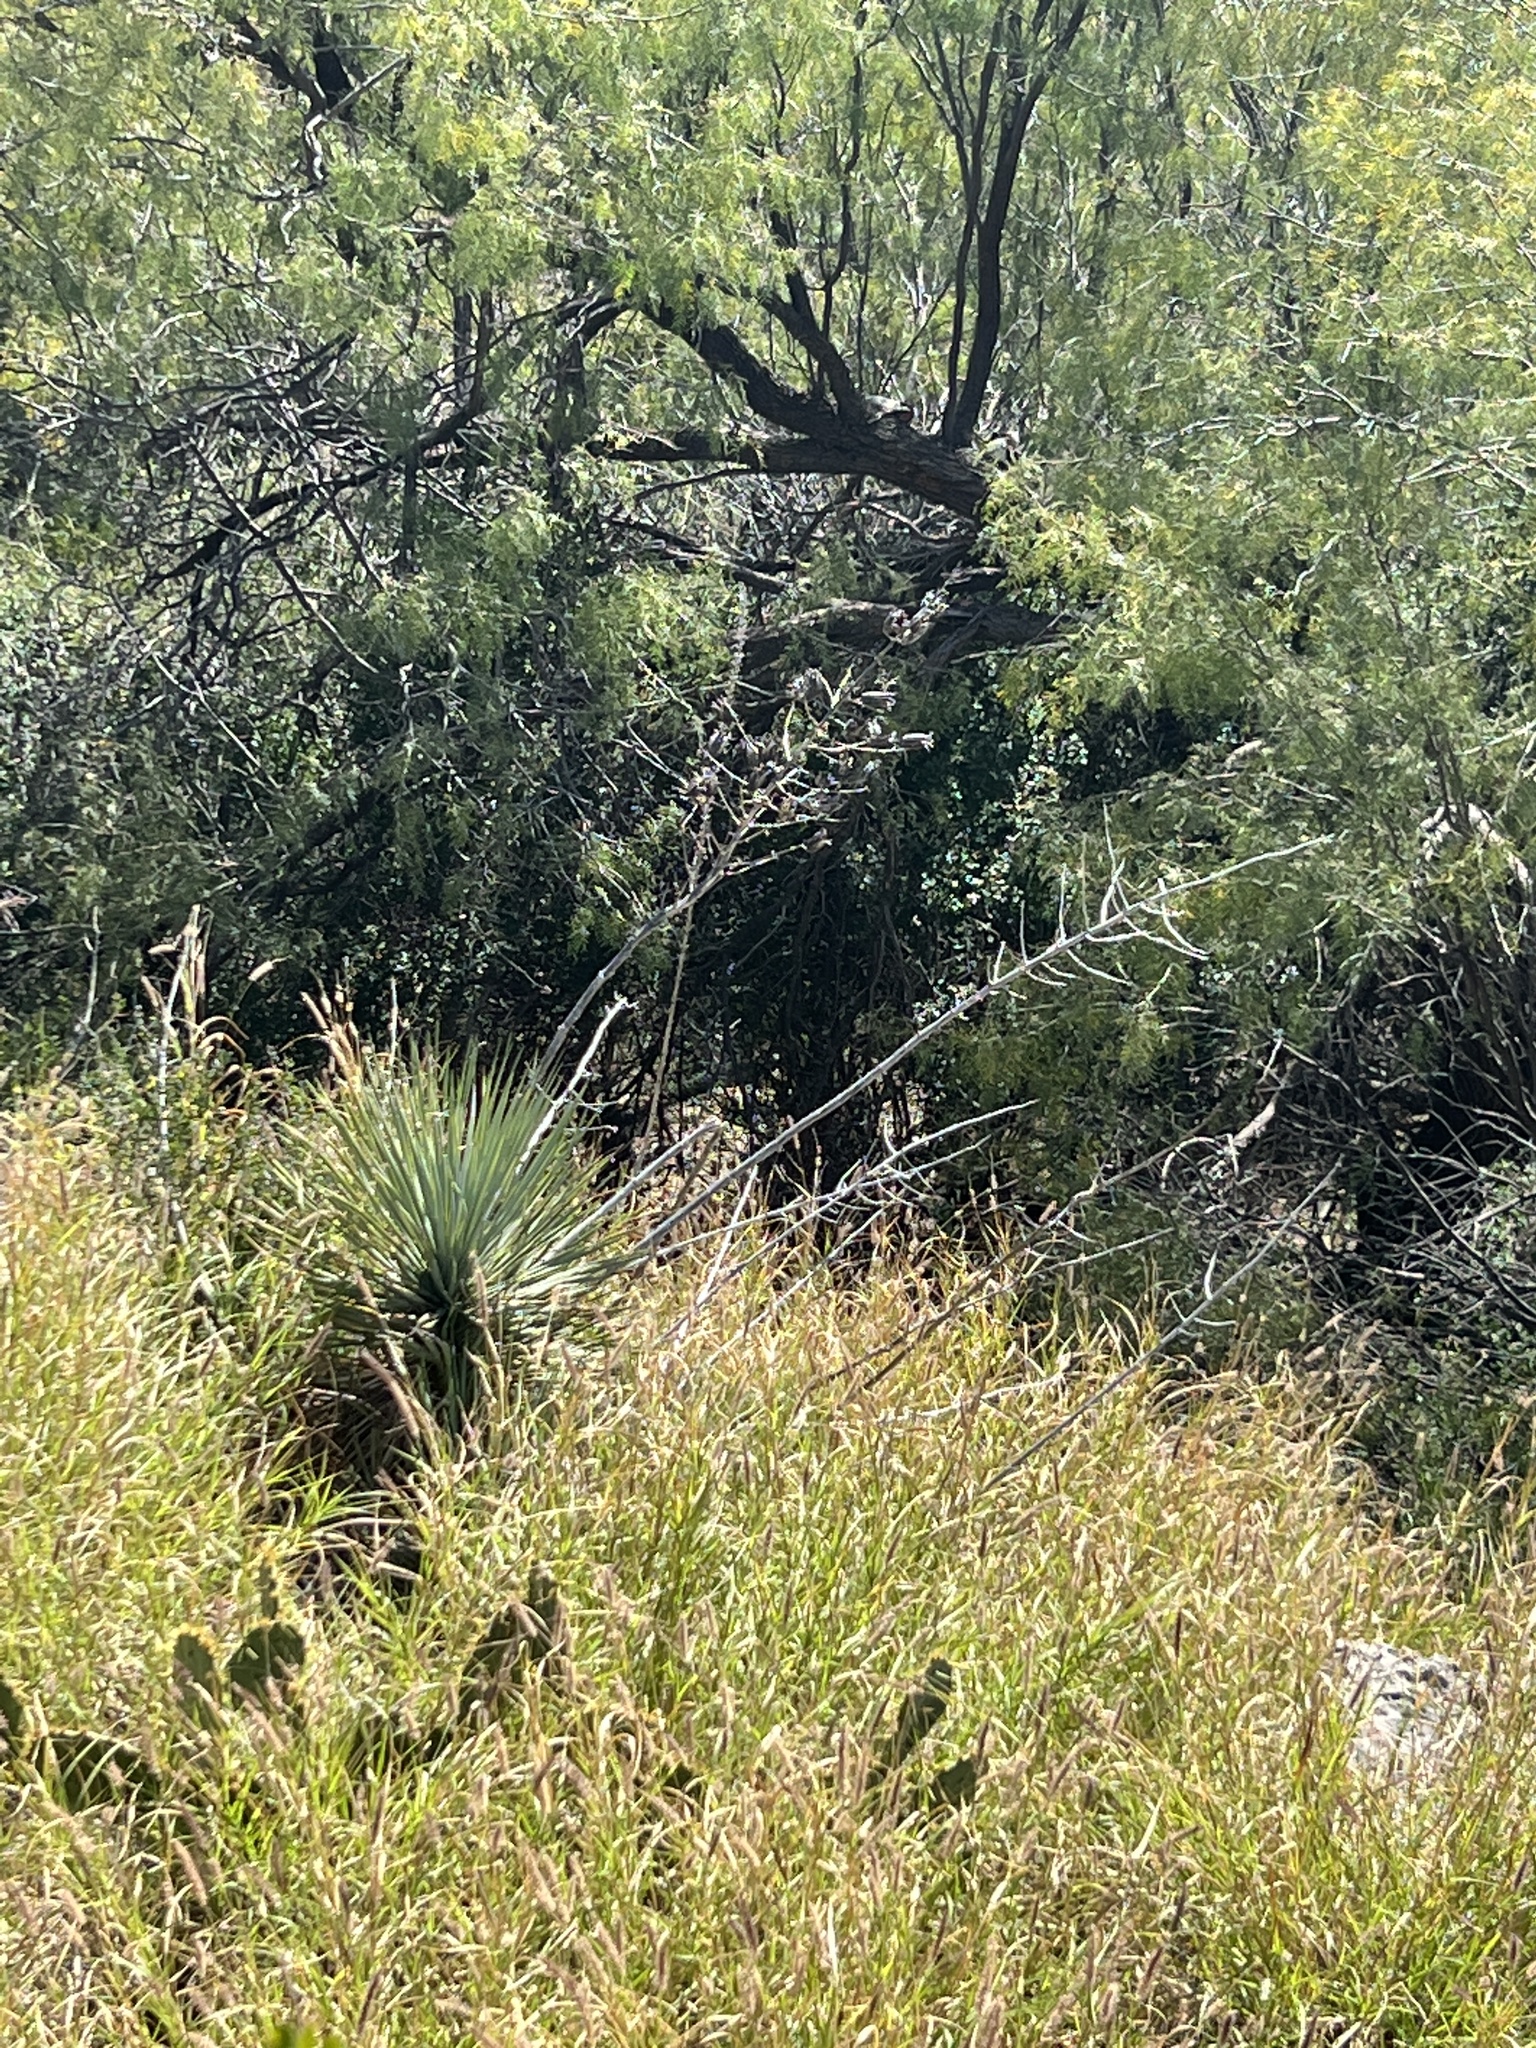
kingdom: Plantae
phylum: Tracheophyta
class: Liliopsida
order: Asparagales
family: Asparagaceae
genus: Yucca
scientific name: Yucca thompsoniana
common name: Trans-pecos yucca
